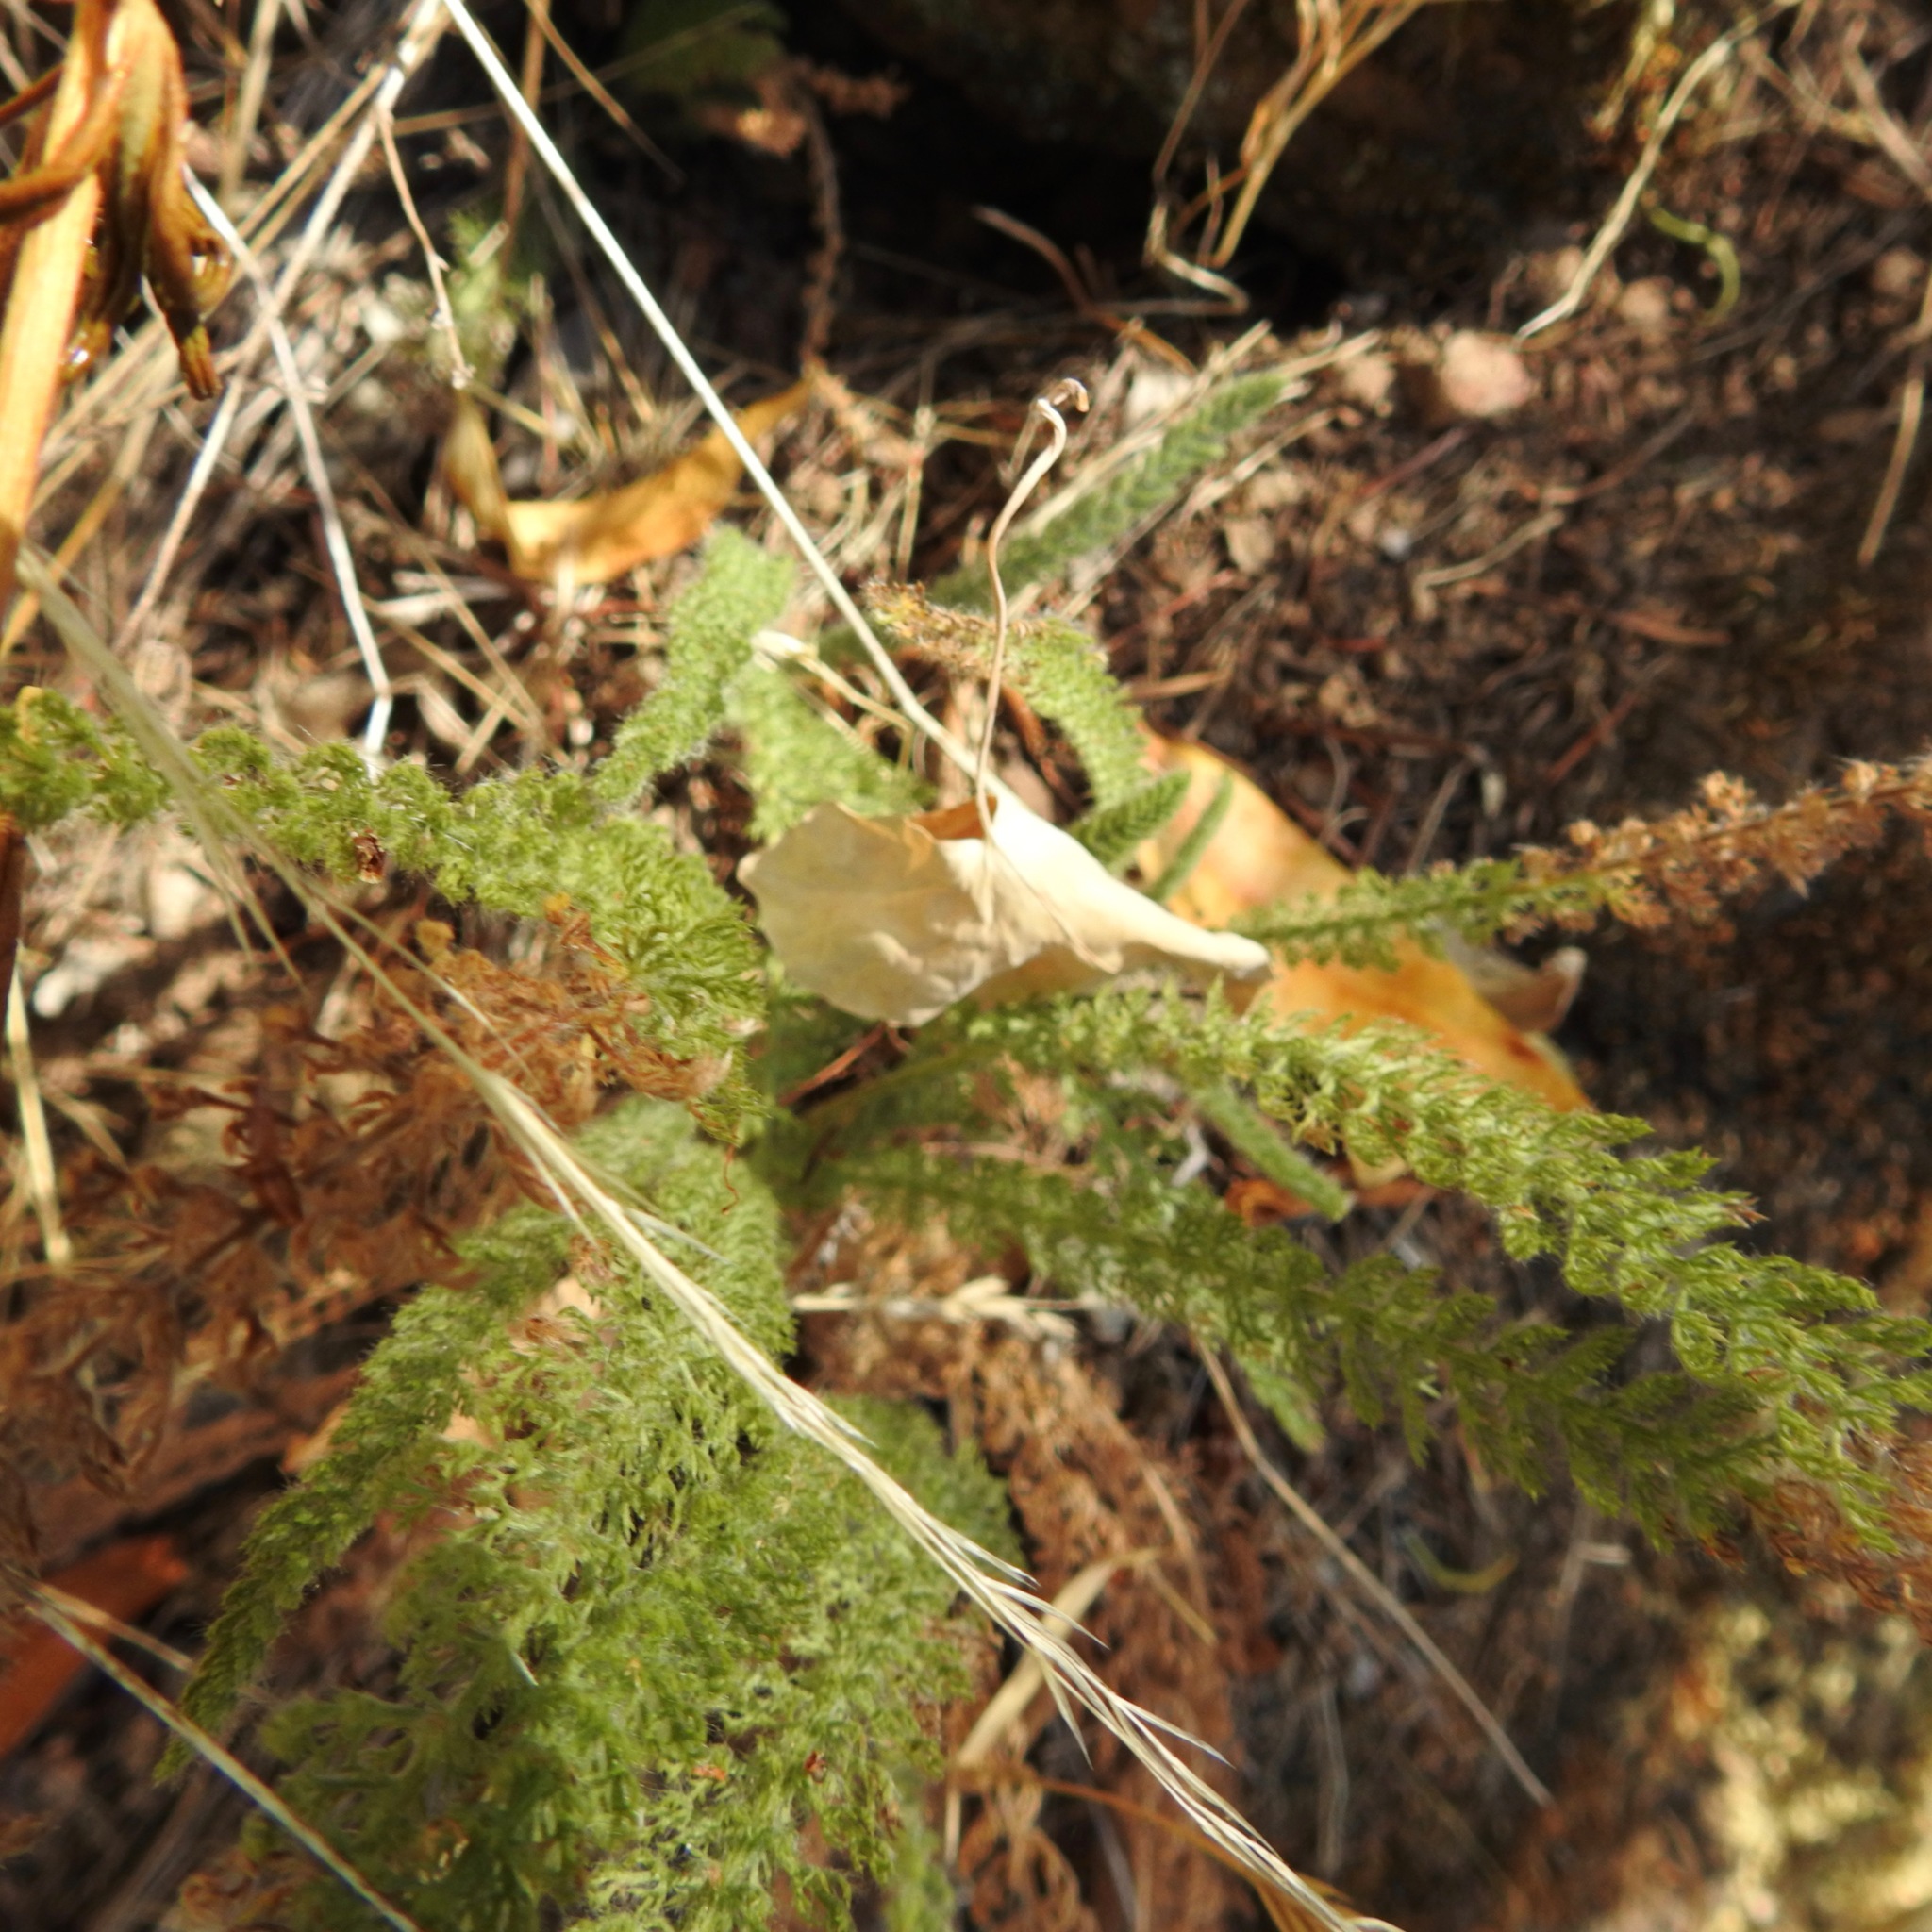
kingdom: Plantae
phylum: Tracheophyta
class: Magnoliopsida
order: Asterales
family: Asteraceae
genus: Achillea
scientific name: Achillea millefolium
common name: Yarrow
